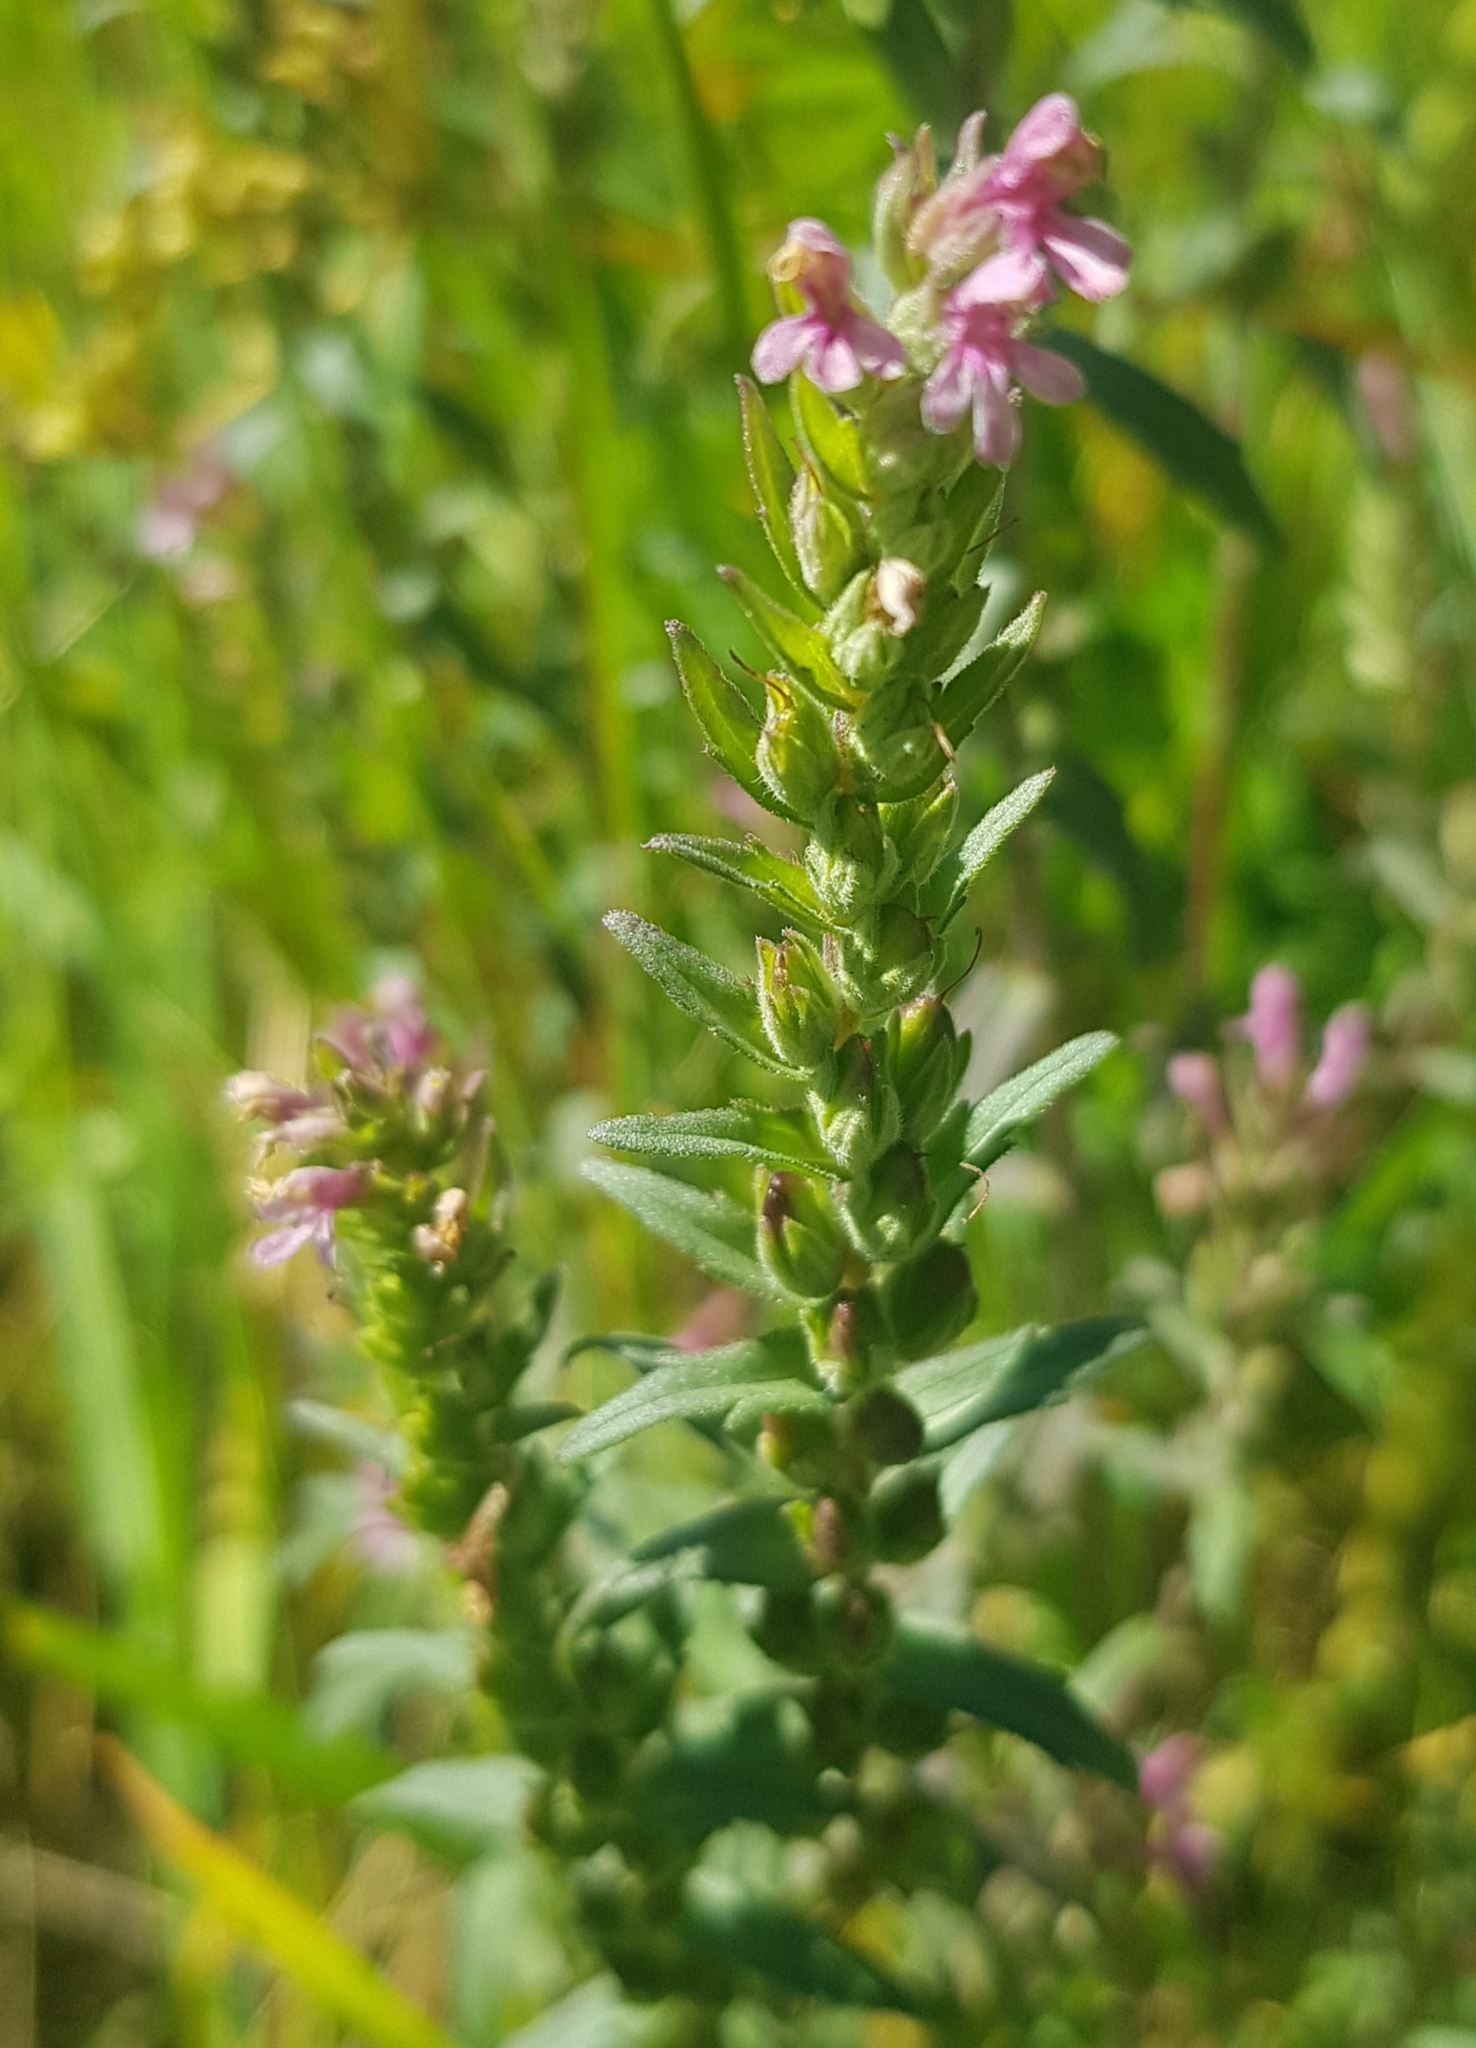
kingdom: Plantae
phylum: Tracheophyta
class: Magnoliopsida
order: Lamiales
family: Orobanchaceae
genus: Odontites
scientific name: Odontites vulgaris
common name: Broomrape
